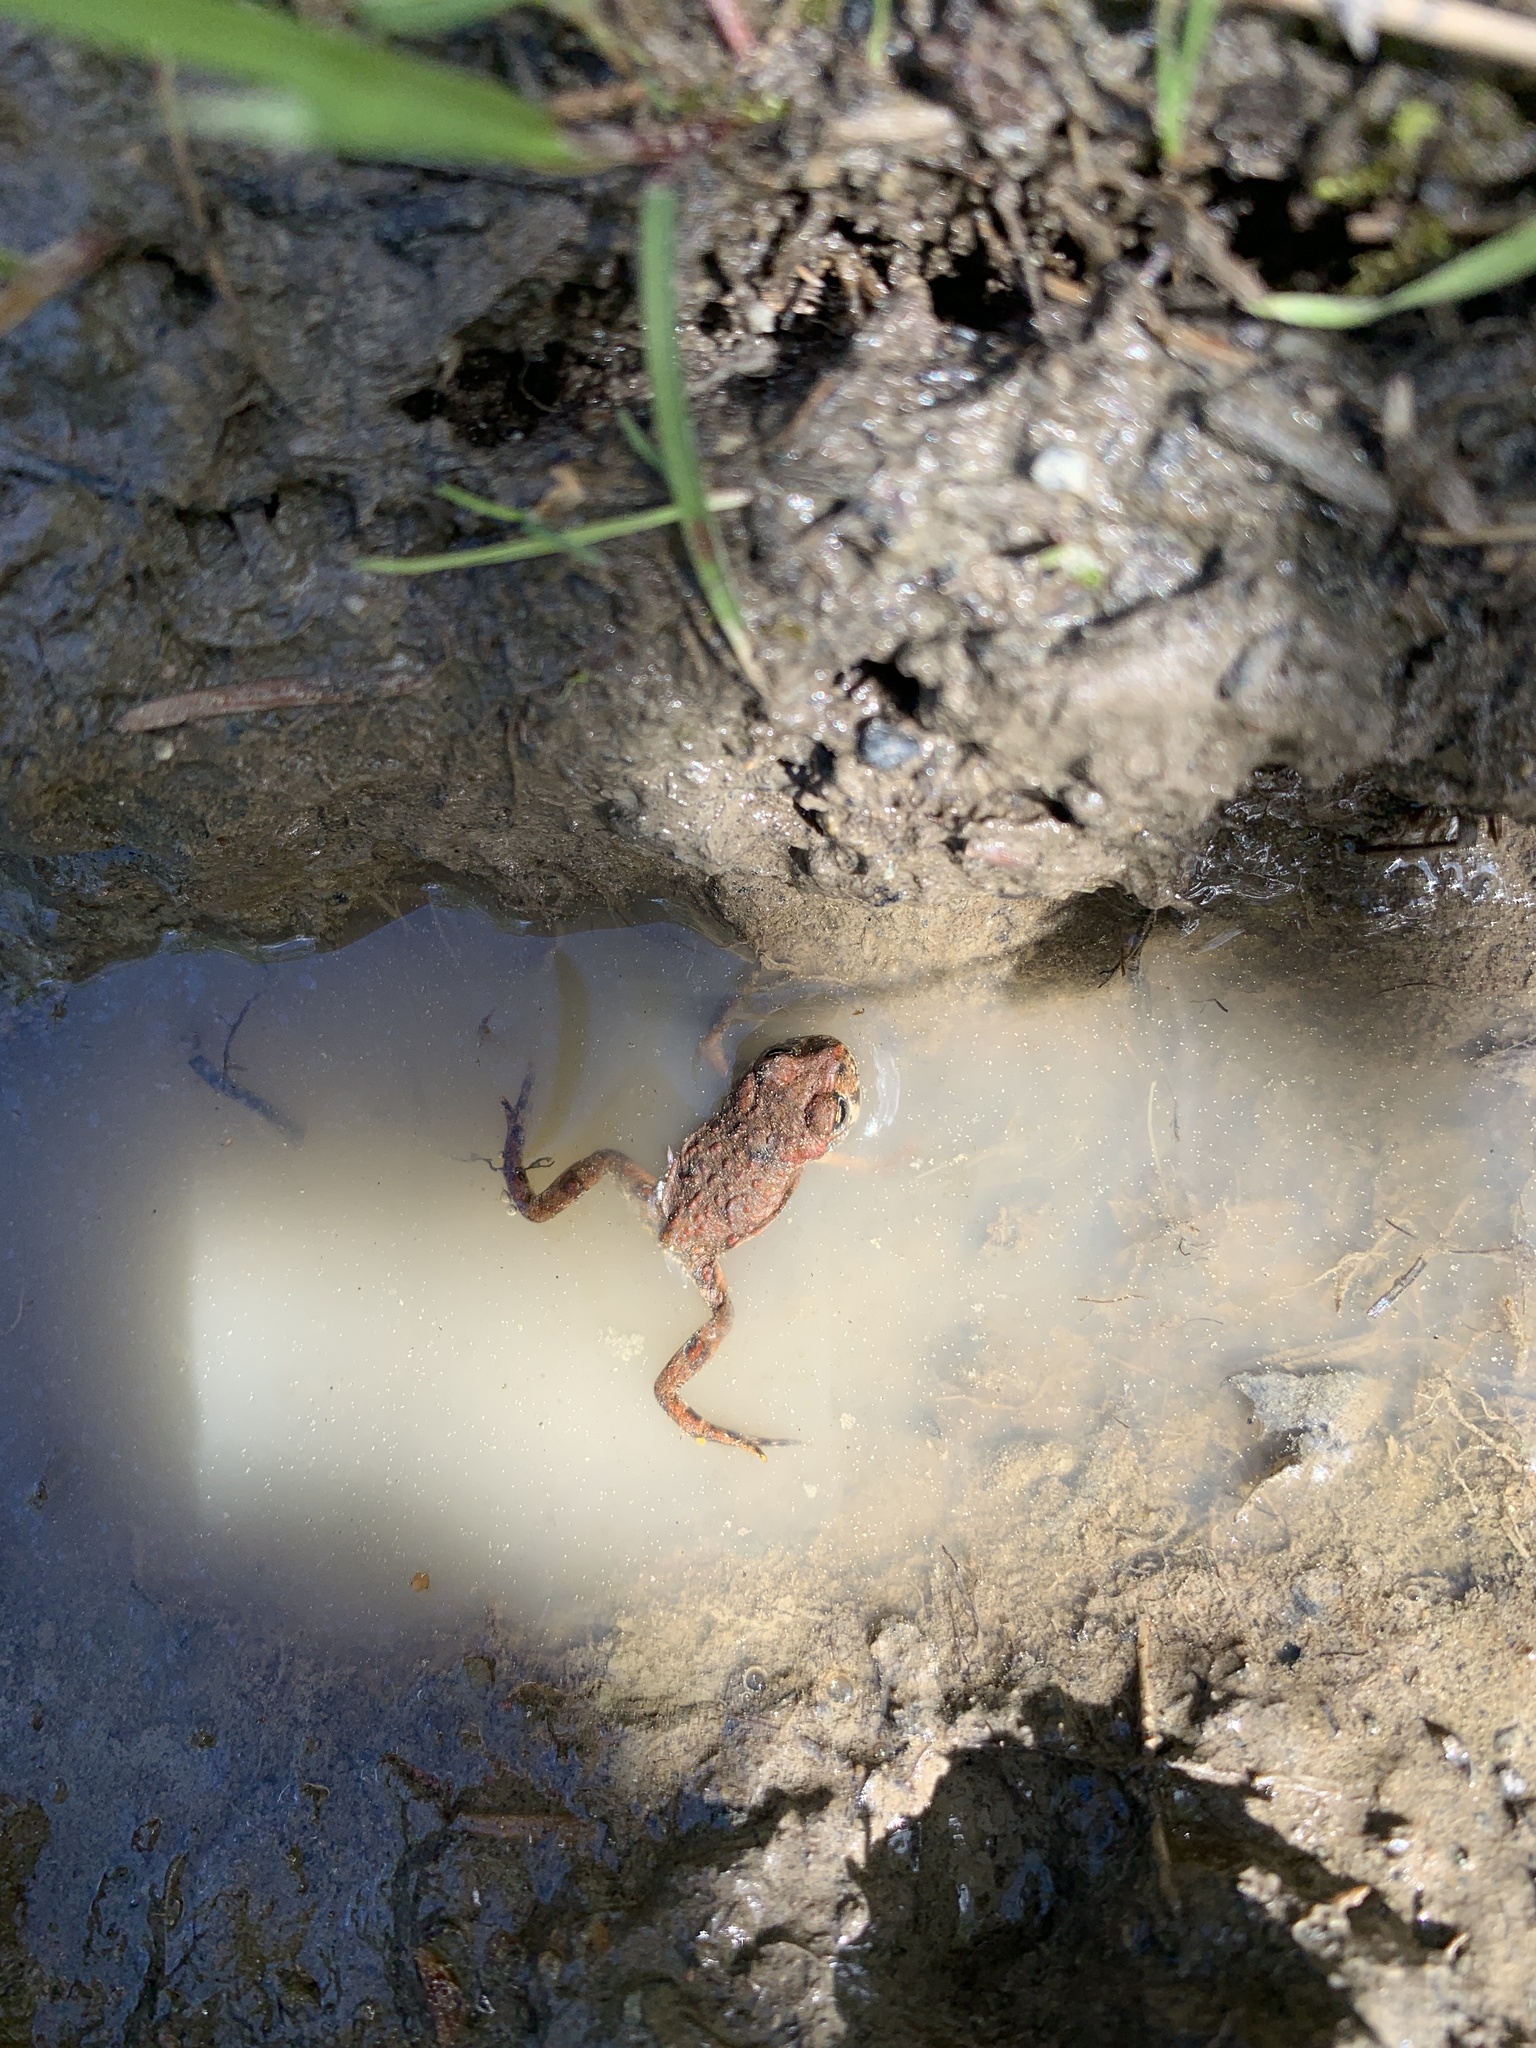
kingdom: Animalia
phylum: Chordata
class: Amphibia
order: Anura
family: Bufonidae
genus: Anaxyrus
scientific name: Anaxyrus boreas
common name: Western toad
